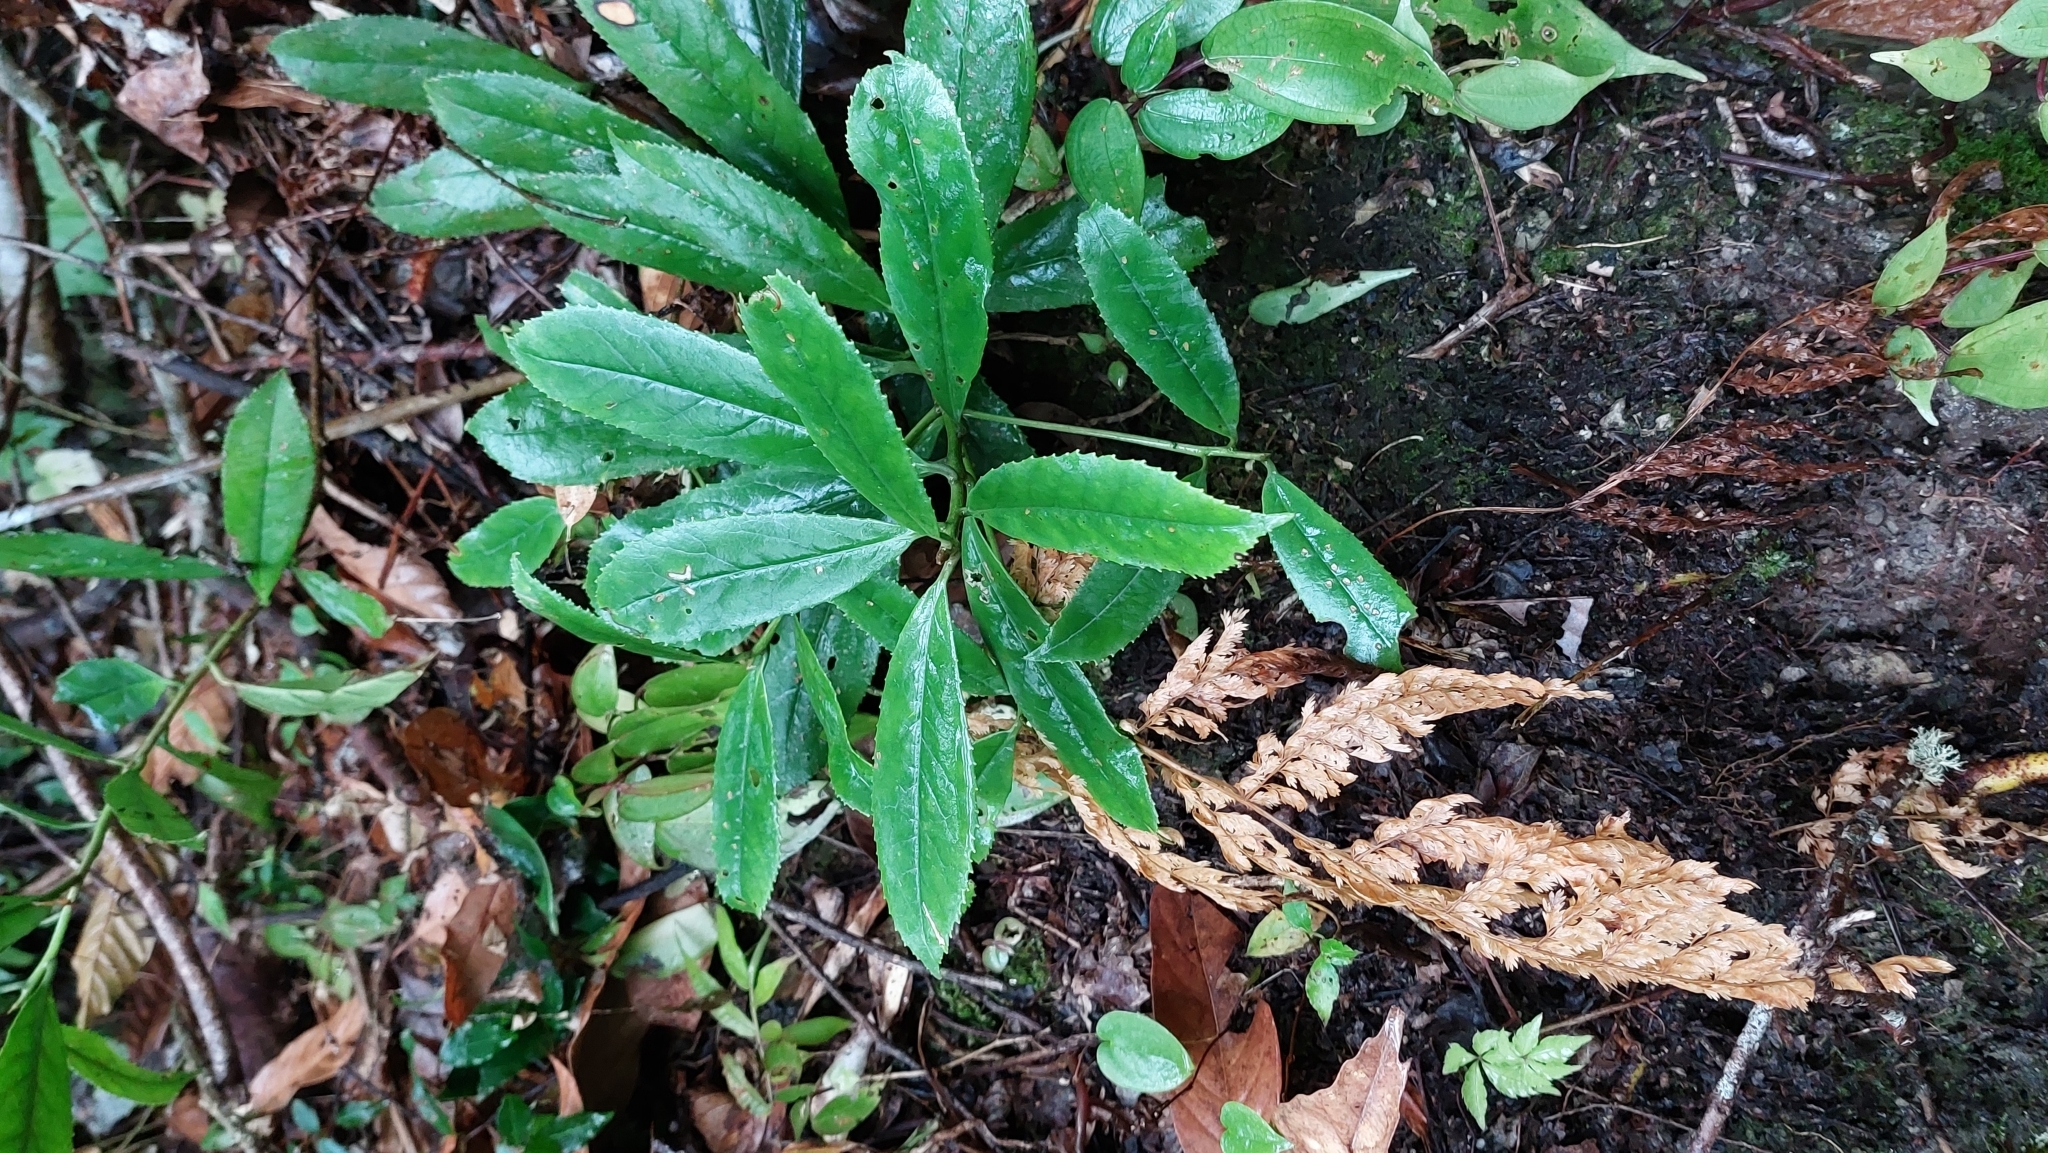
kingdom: Plantae
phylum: Tracheophyta
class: Magnoliopsida
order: Ericales
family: Symplocaceae
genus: Symplocos
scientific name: Symplocos acuminata
